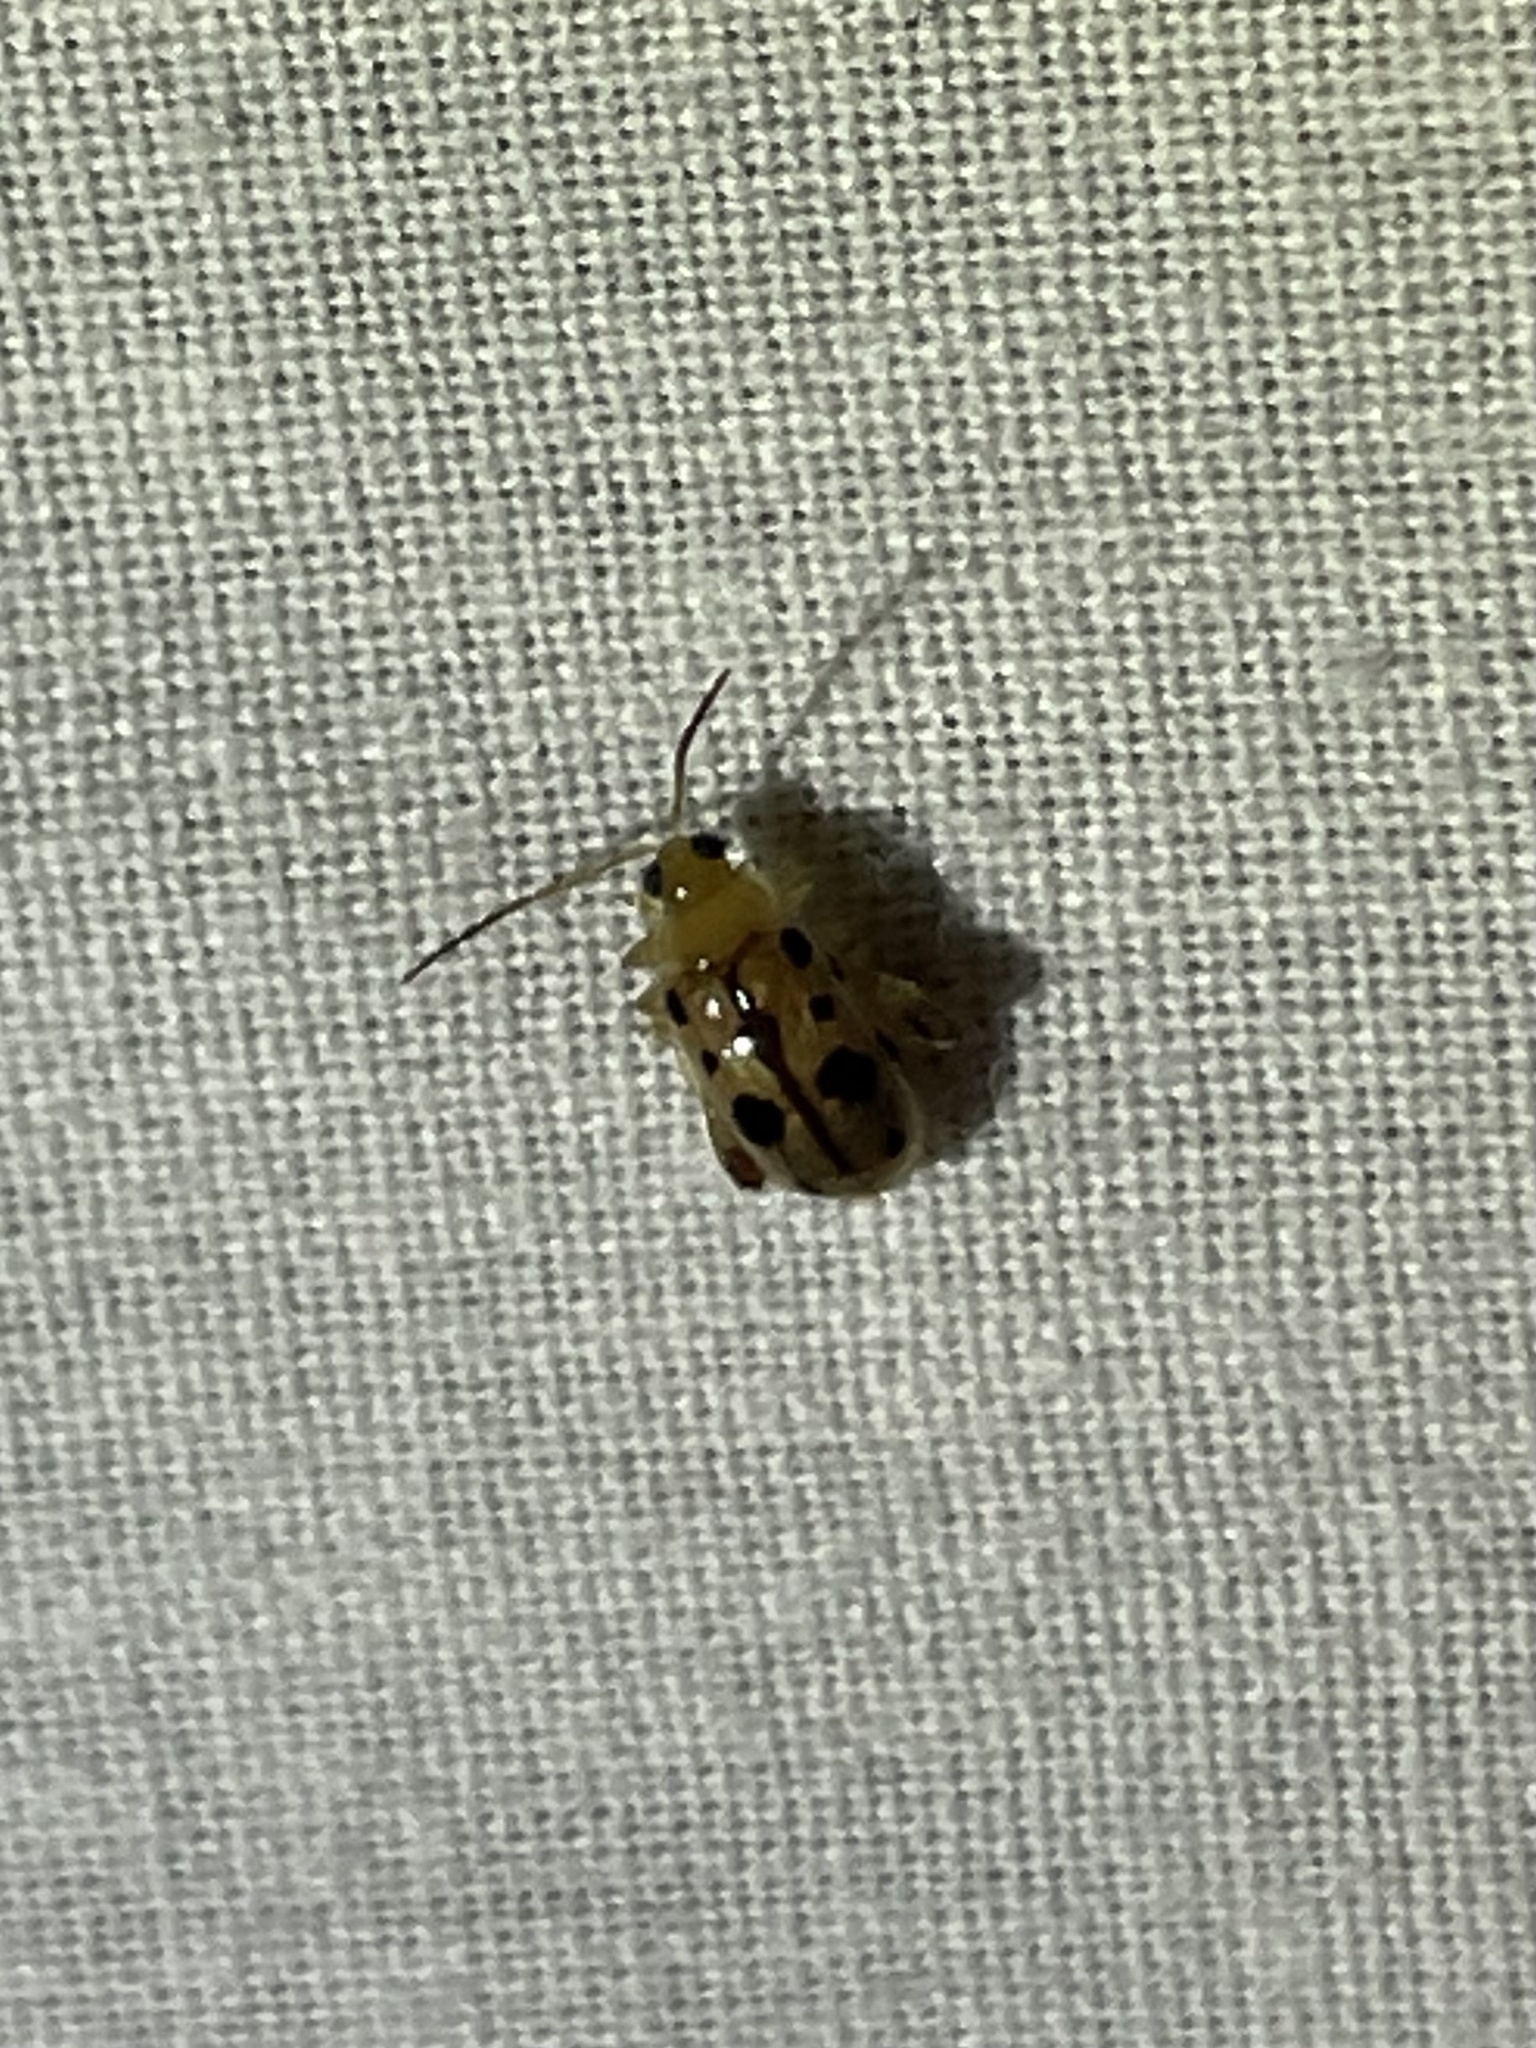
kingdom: Animalia
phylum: Arthropoda
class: Insecta
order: Coleoptera
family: Chrysomelidae
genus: Capraita
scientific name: Capraita nigrosignata
